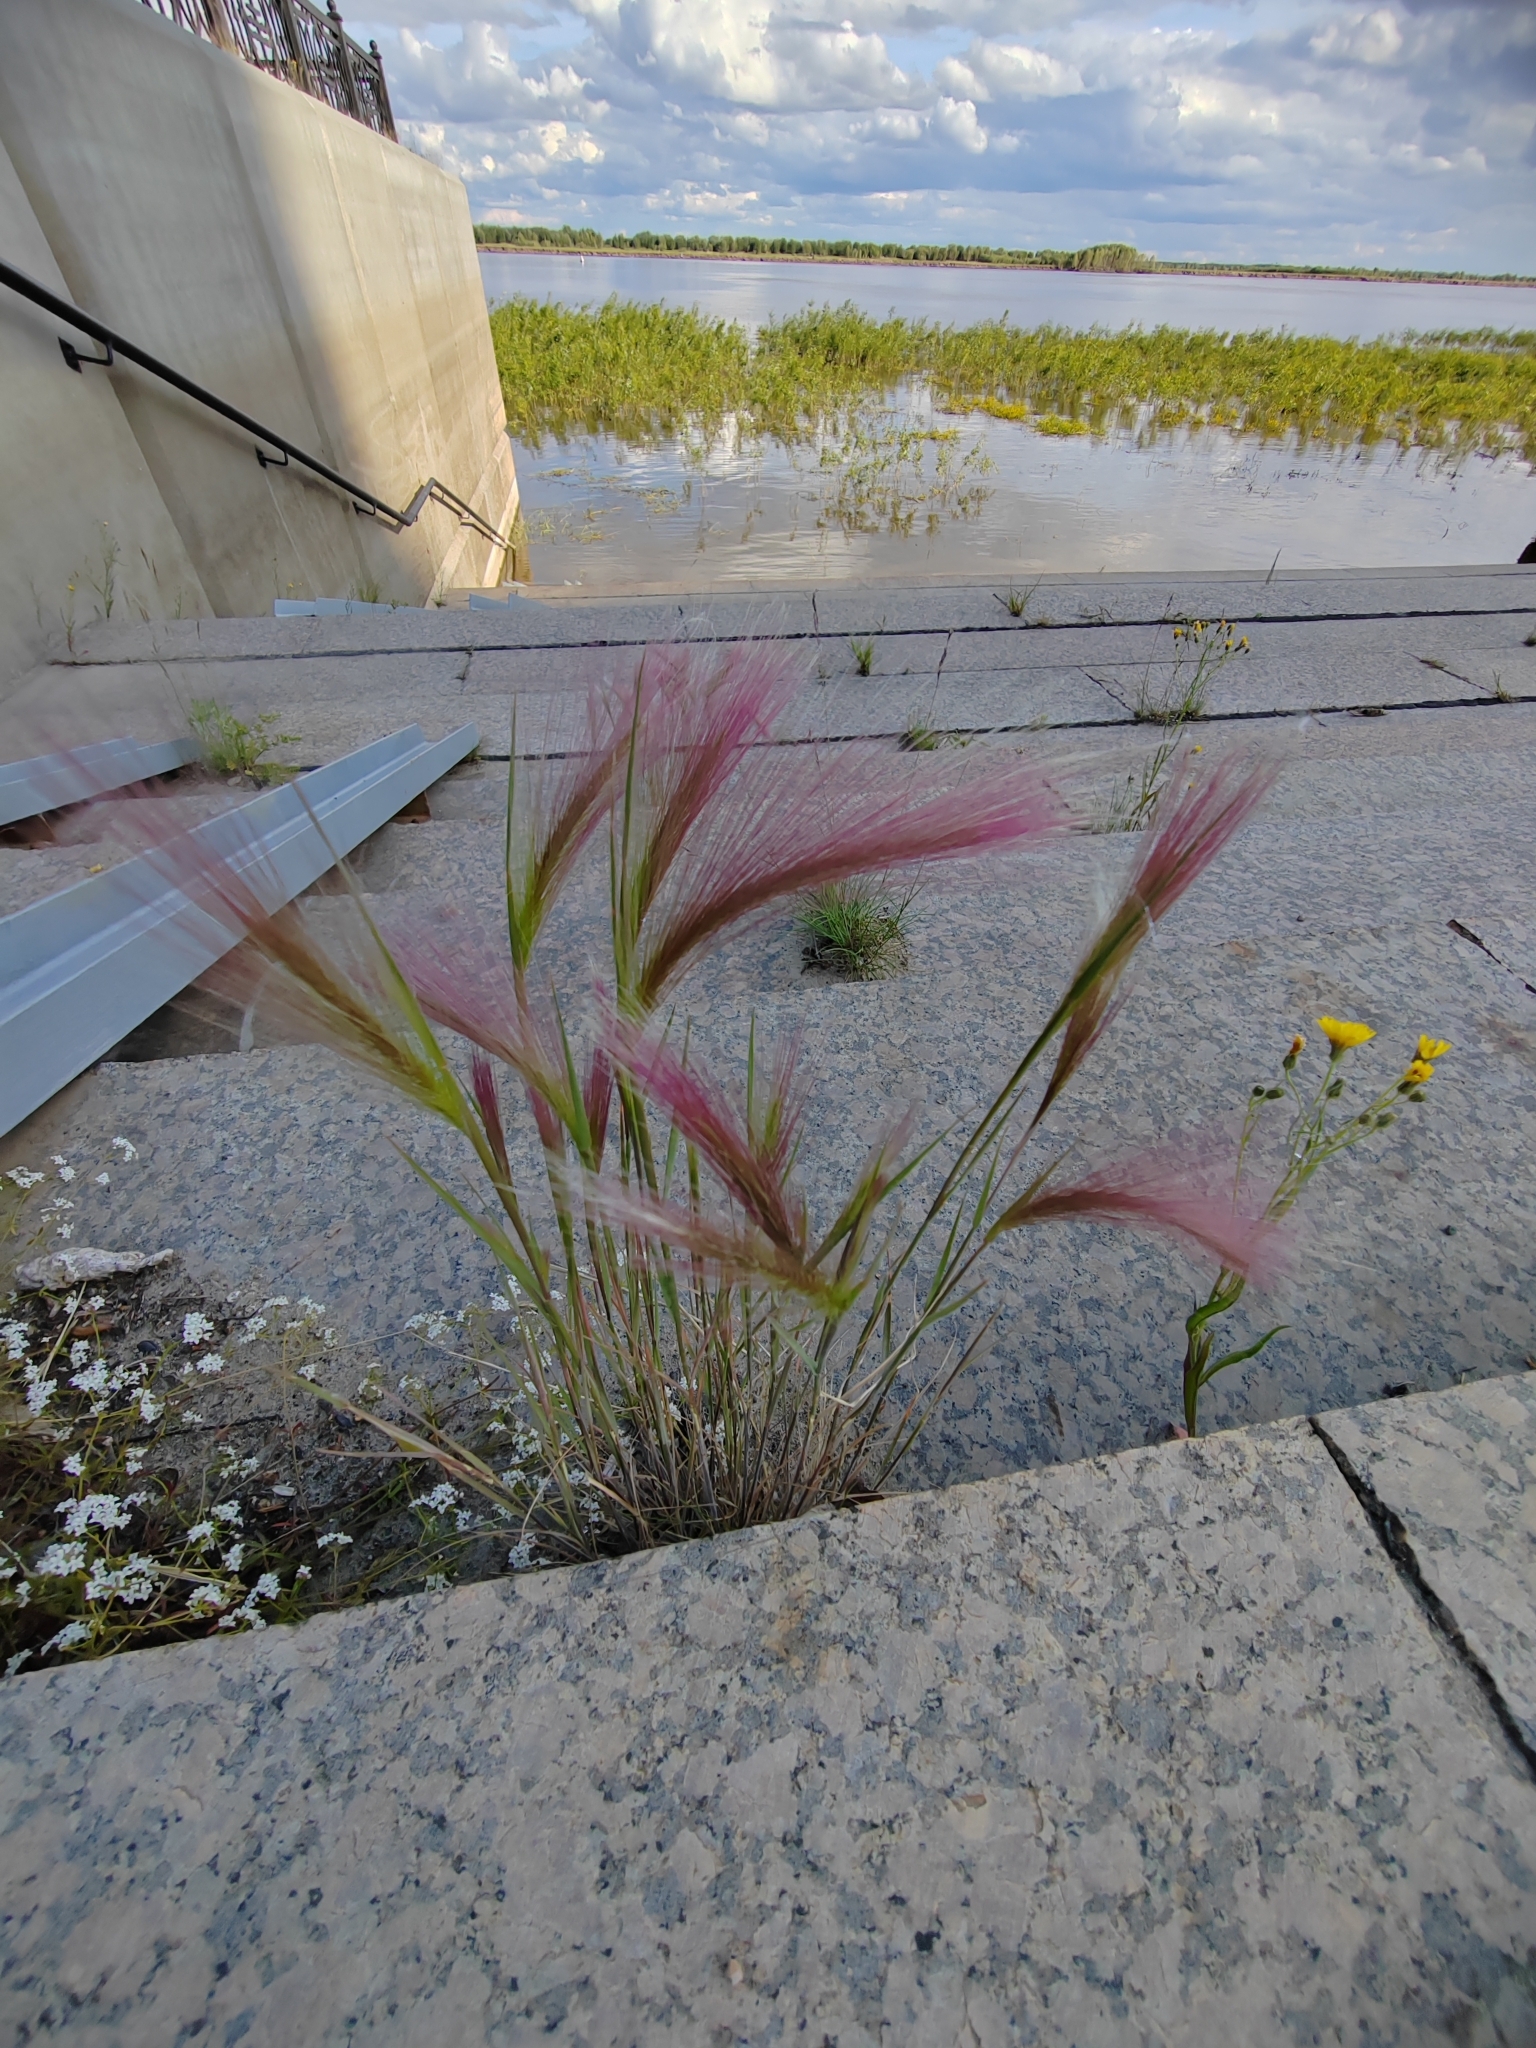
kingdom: Plantae
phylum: Tracheophyta
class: Liliopsida
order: Poales
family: Poaceae
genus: Hordeum
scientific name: Hordeum jubatum
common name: Foxtail barley
